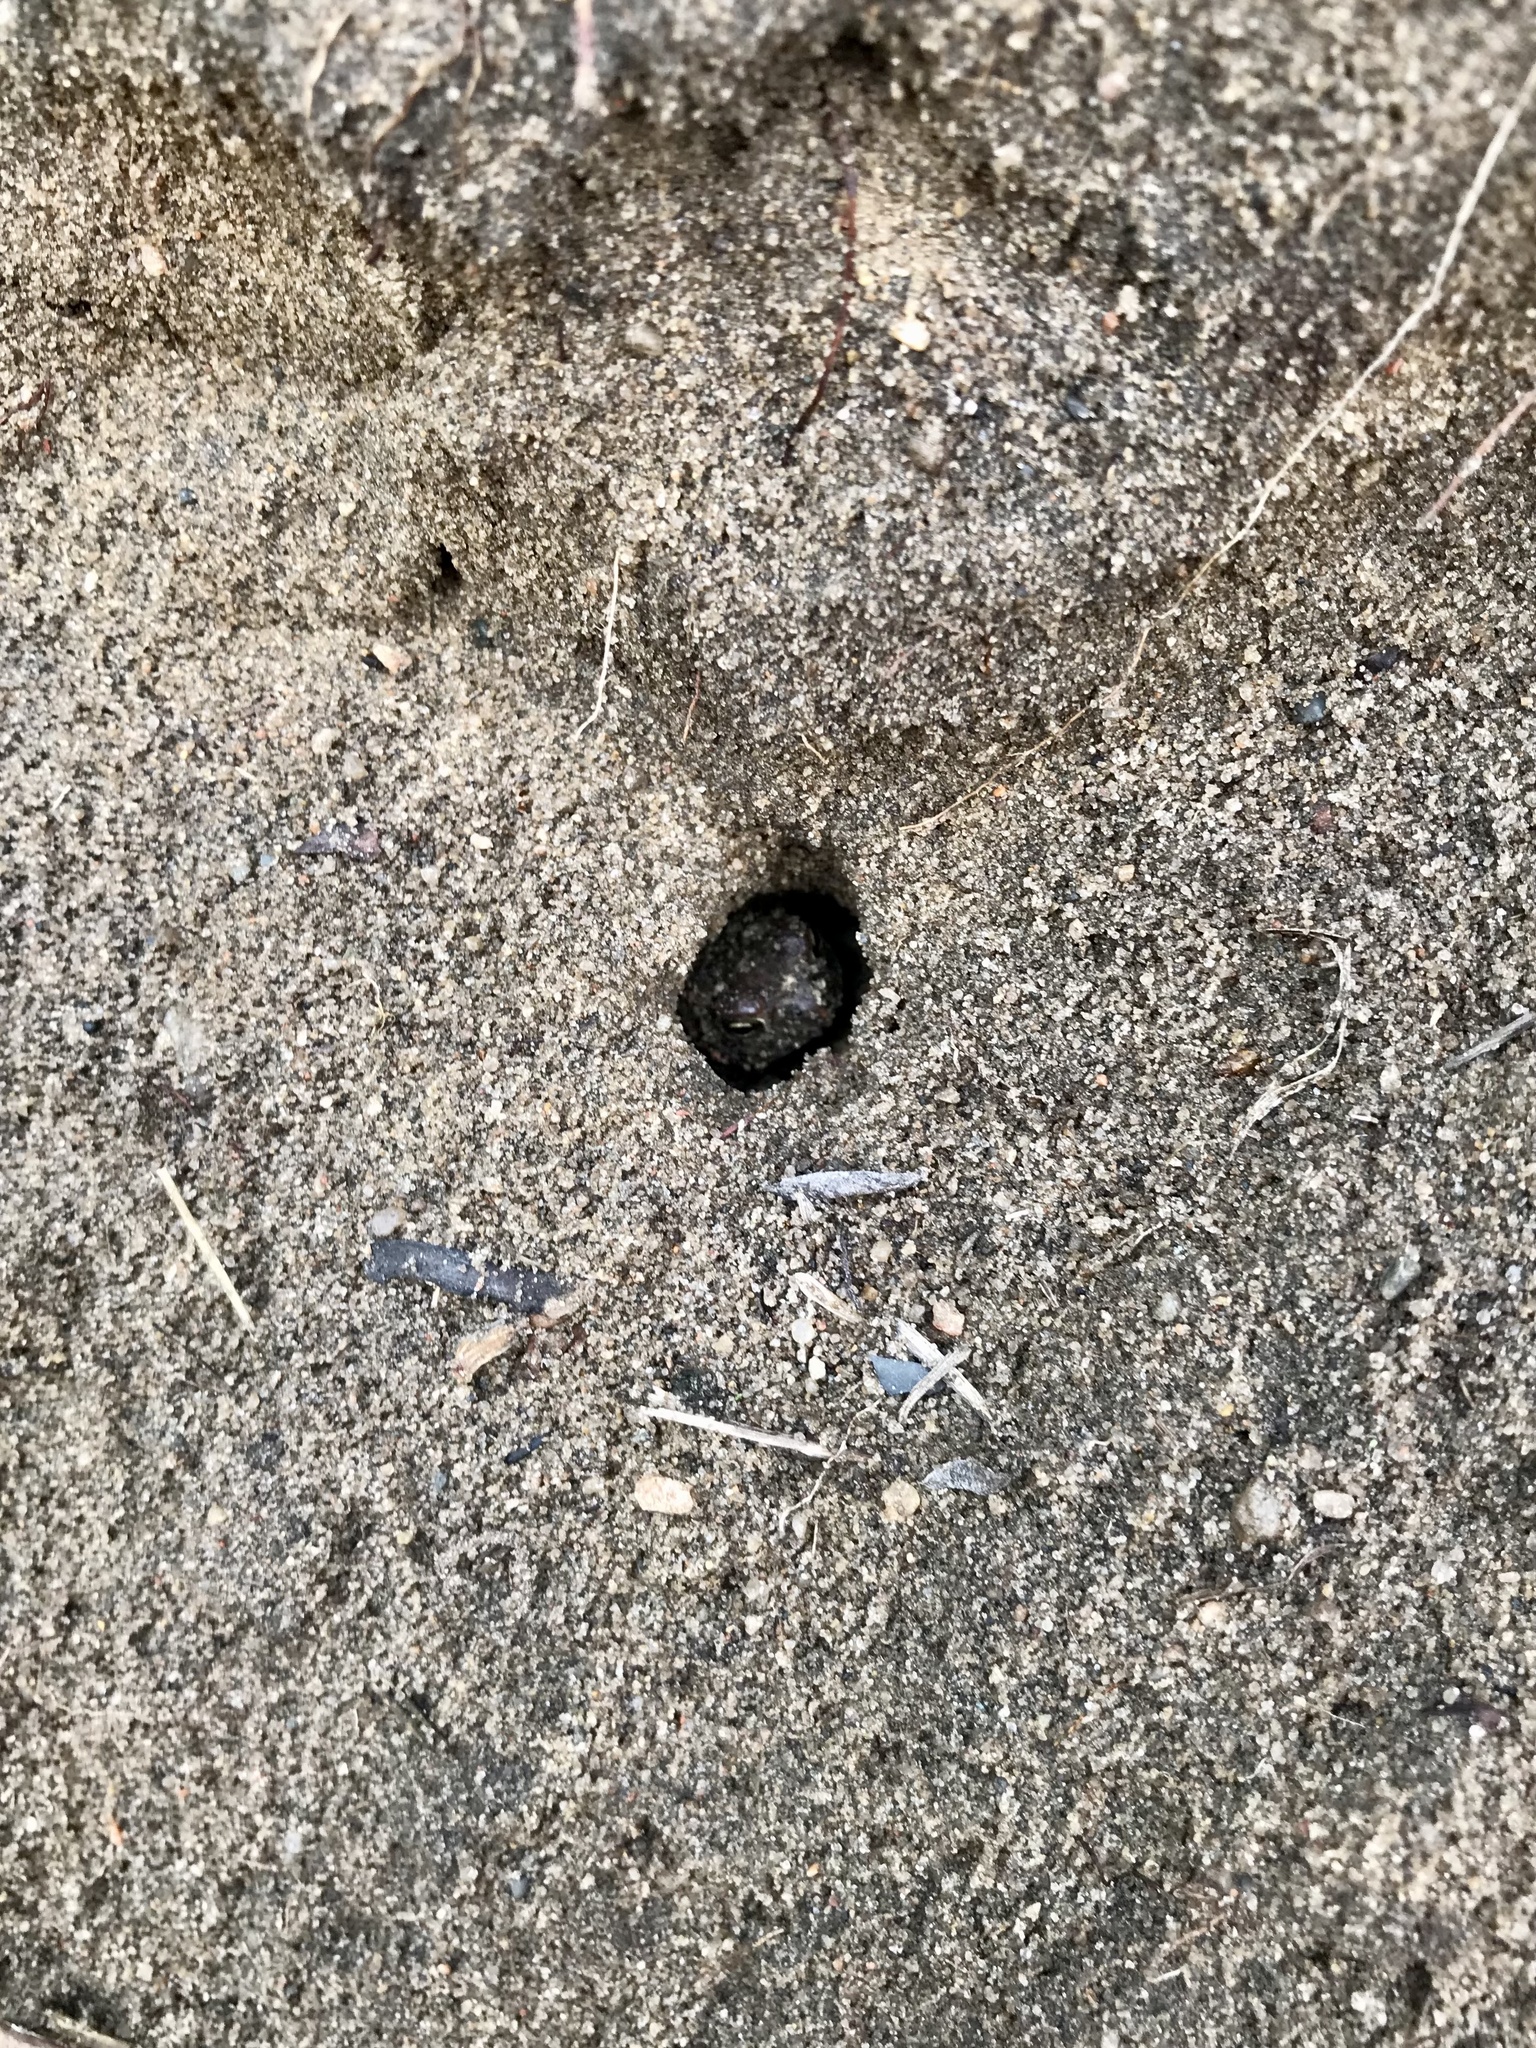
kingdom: Animalia
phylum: Chordata
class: Amphibia
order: Anura
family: Bufonidae
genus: Anaxyrus
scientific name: Anaxyrus americanus
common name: American toad
